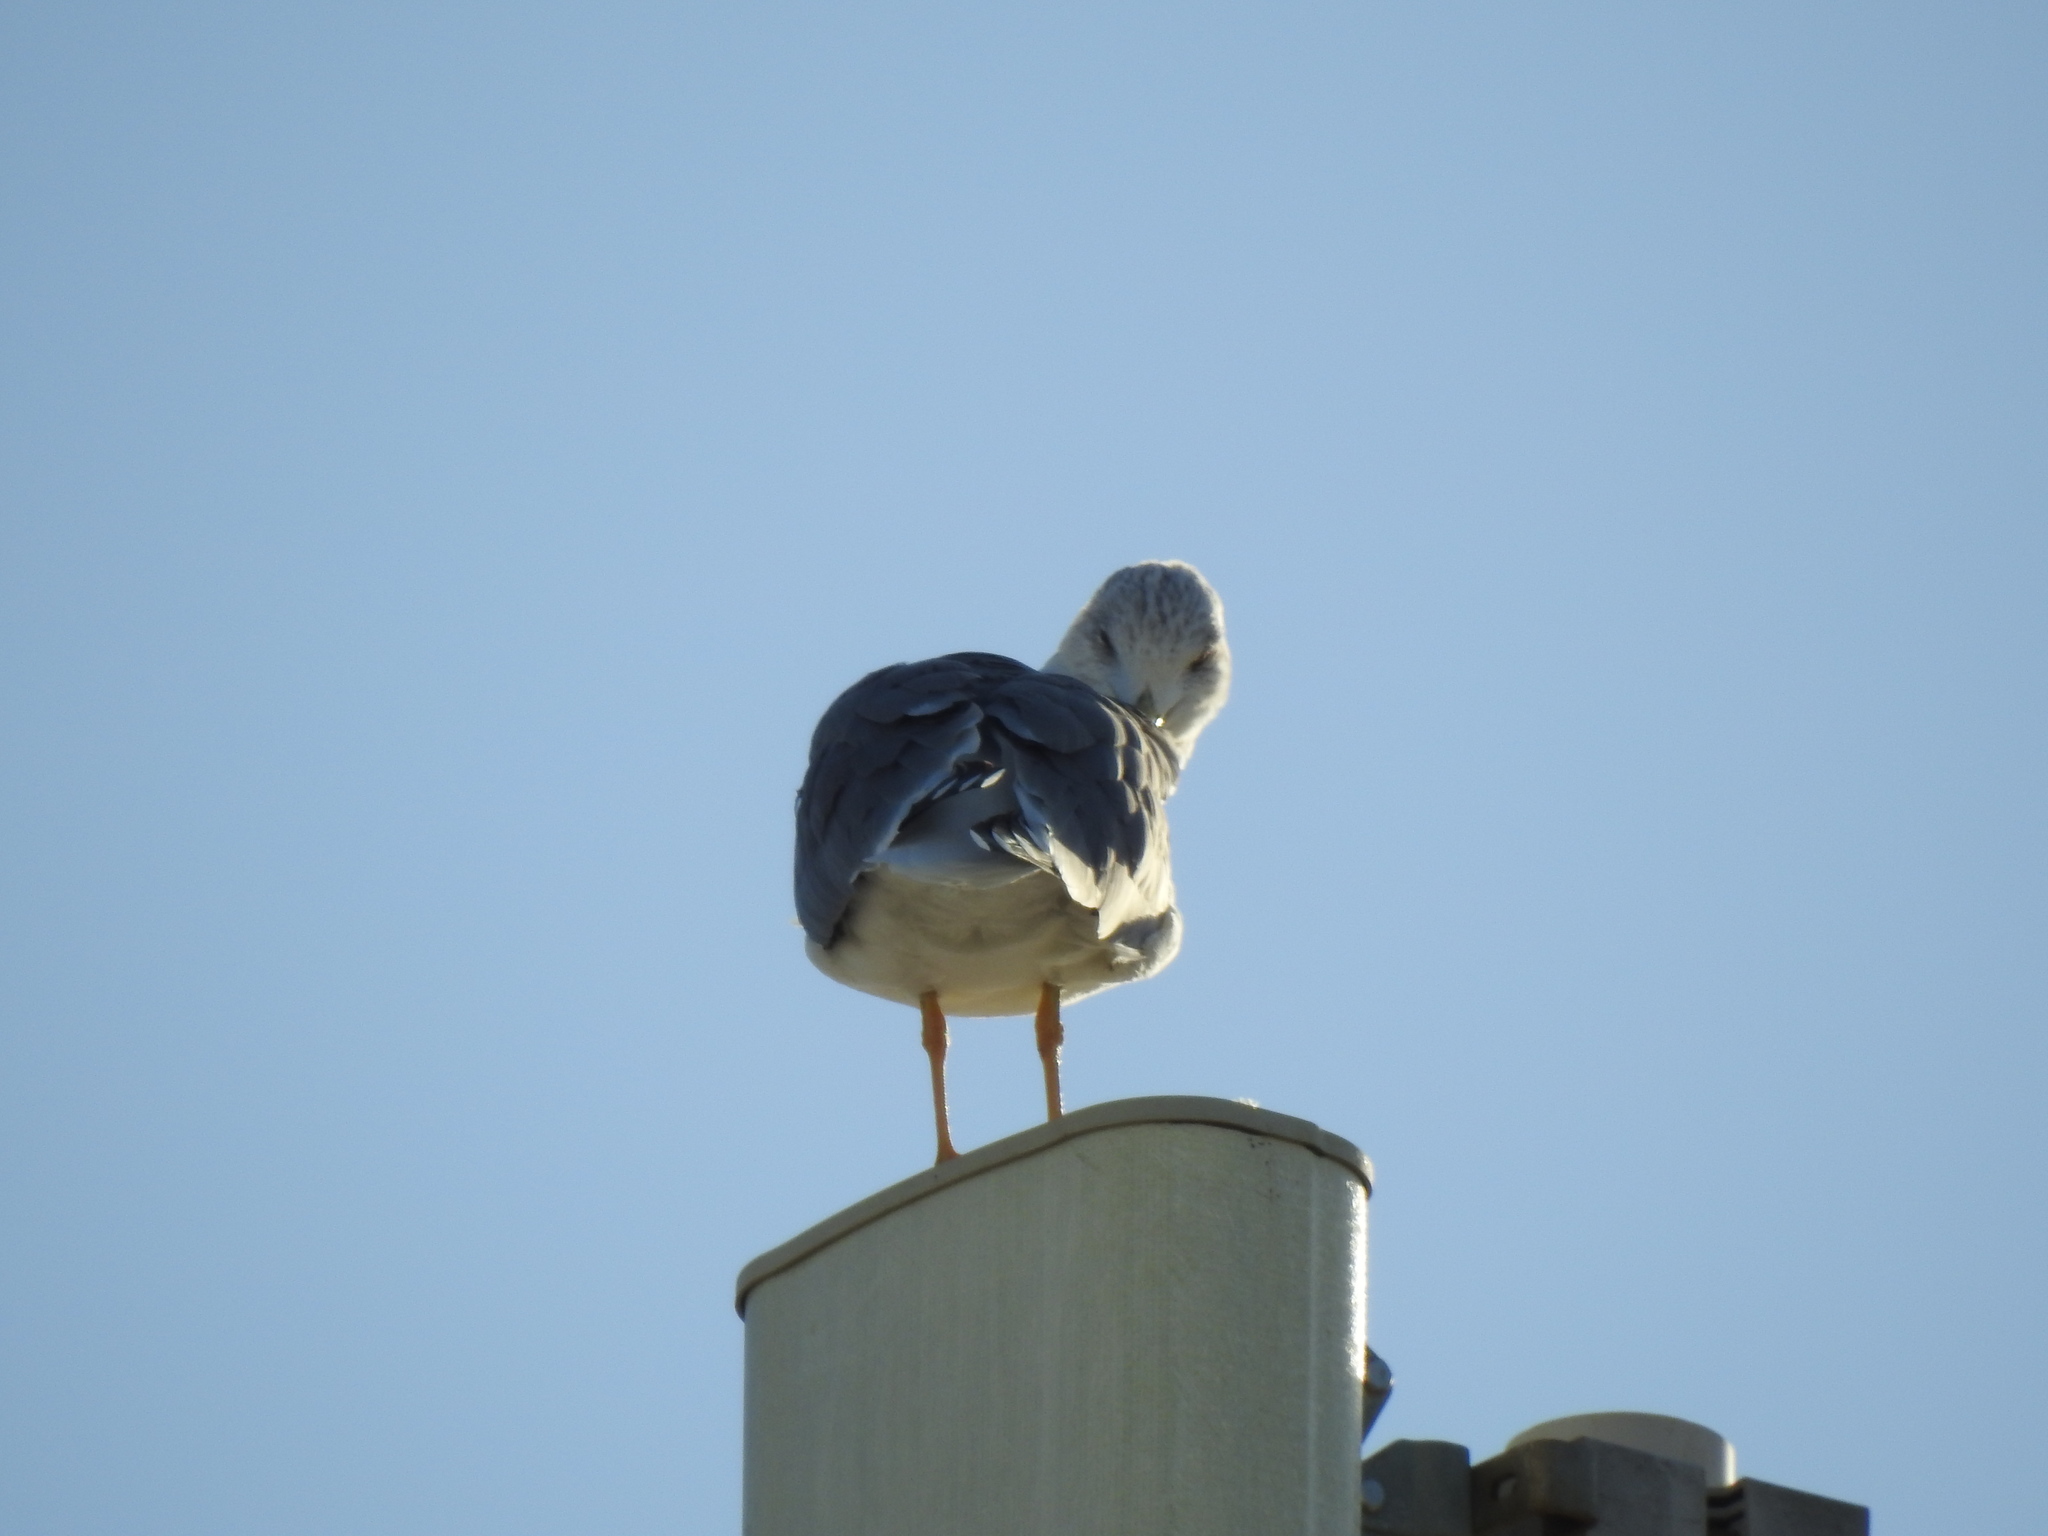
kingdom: Animalia
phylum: Chordata
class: Aves
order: Charadriiformes
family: Laridae
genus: Larus
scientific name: Larus michahellis
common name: Yellow-legged gull
